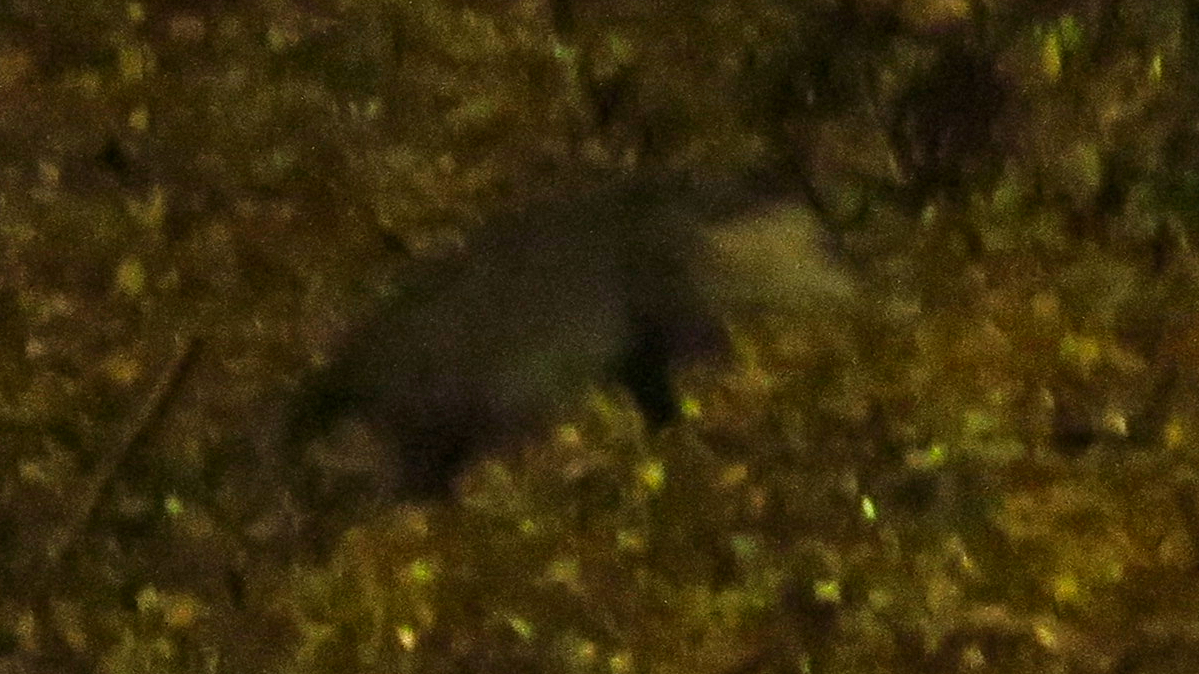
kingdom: Animalia
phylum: Chordata
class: Mammalia
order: Didelphimorphia
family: Didelphidae
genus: Didelphis
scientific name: Didelphis virginiana
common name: Virginia opossum
